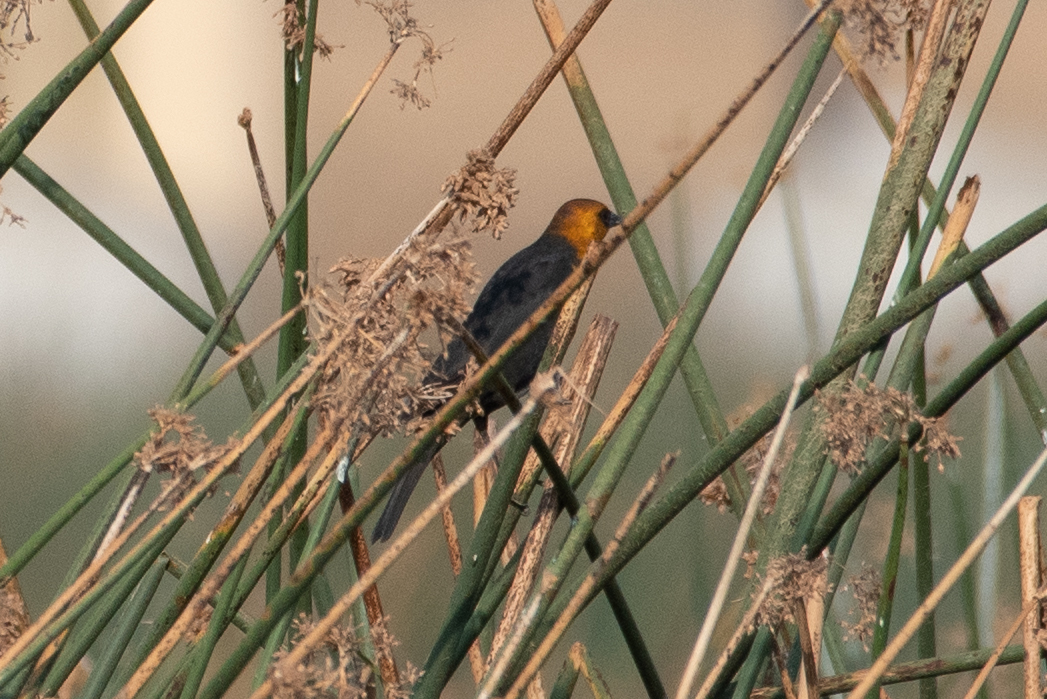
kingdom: Animalia
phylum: Chordata
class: Aves
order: Passeriformes
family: Icteridae
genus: Xanthocephalus
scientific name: Xanthocephalus xanthocephalus
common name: Yellow-headed blackbird
